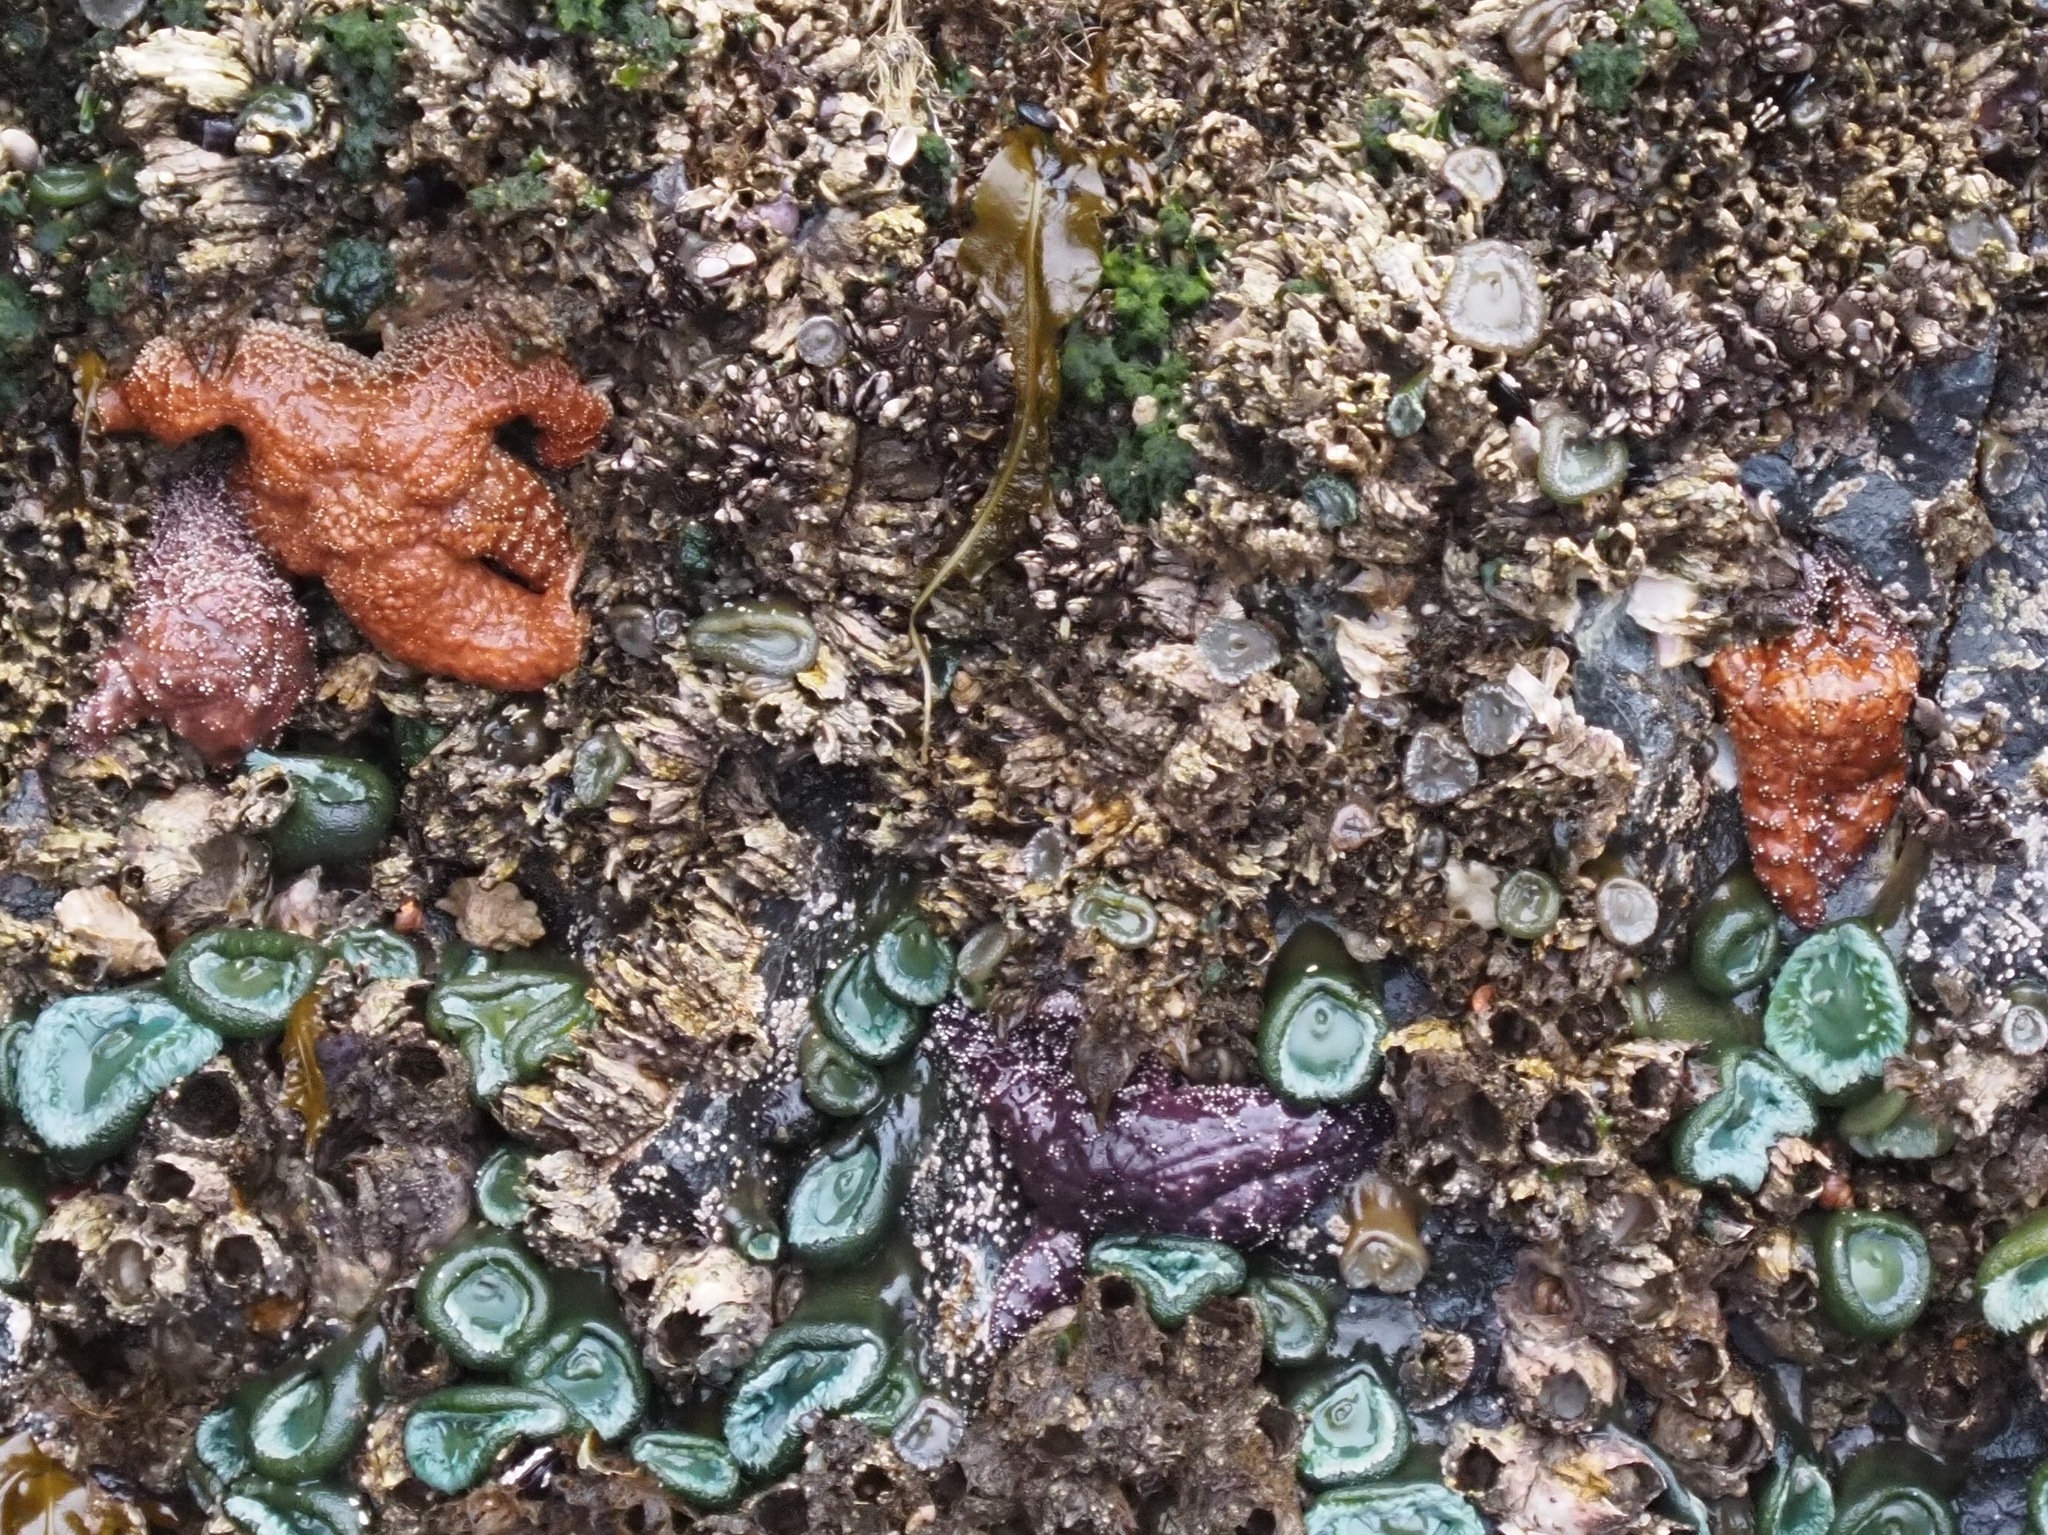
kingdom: Animalia
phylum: Echinodermata
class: Asteroidea
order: Forcipulatida
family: Asteriidae
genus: Pisaster
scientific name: Pisaster ochraceus
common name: Ochre stars
